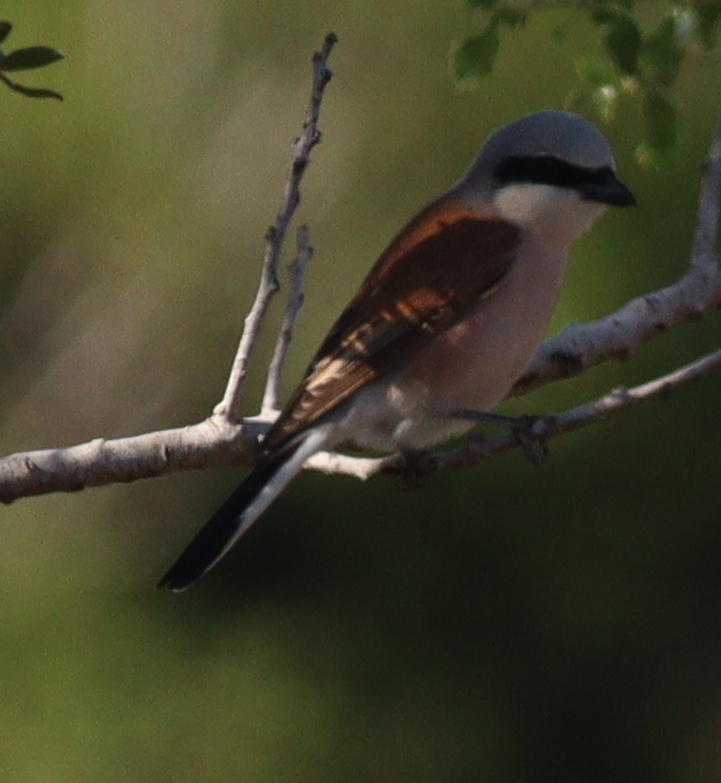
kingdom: Animalia
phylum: Chordata
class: Aves
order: Passeriformes
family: Laniidae
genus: Lanius
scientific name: Lanius collurio
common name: Red-backed shrike
